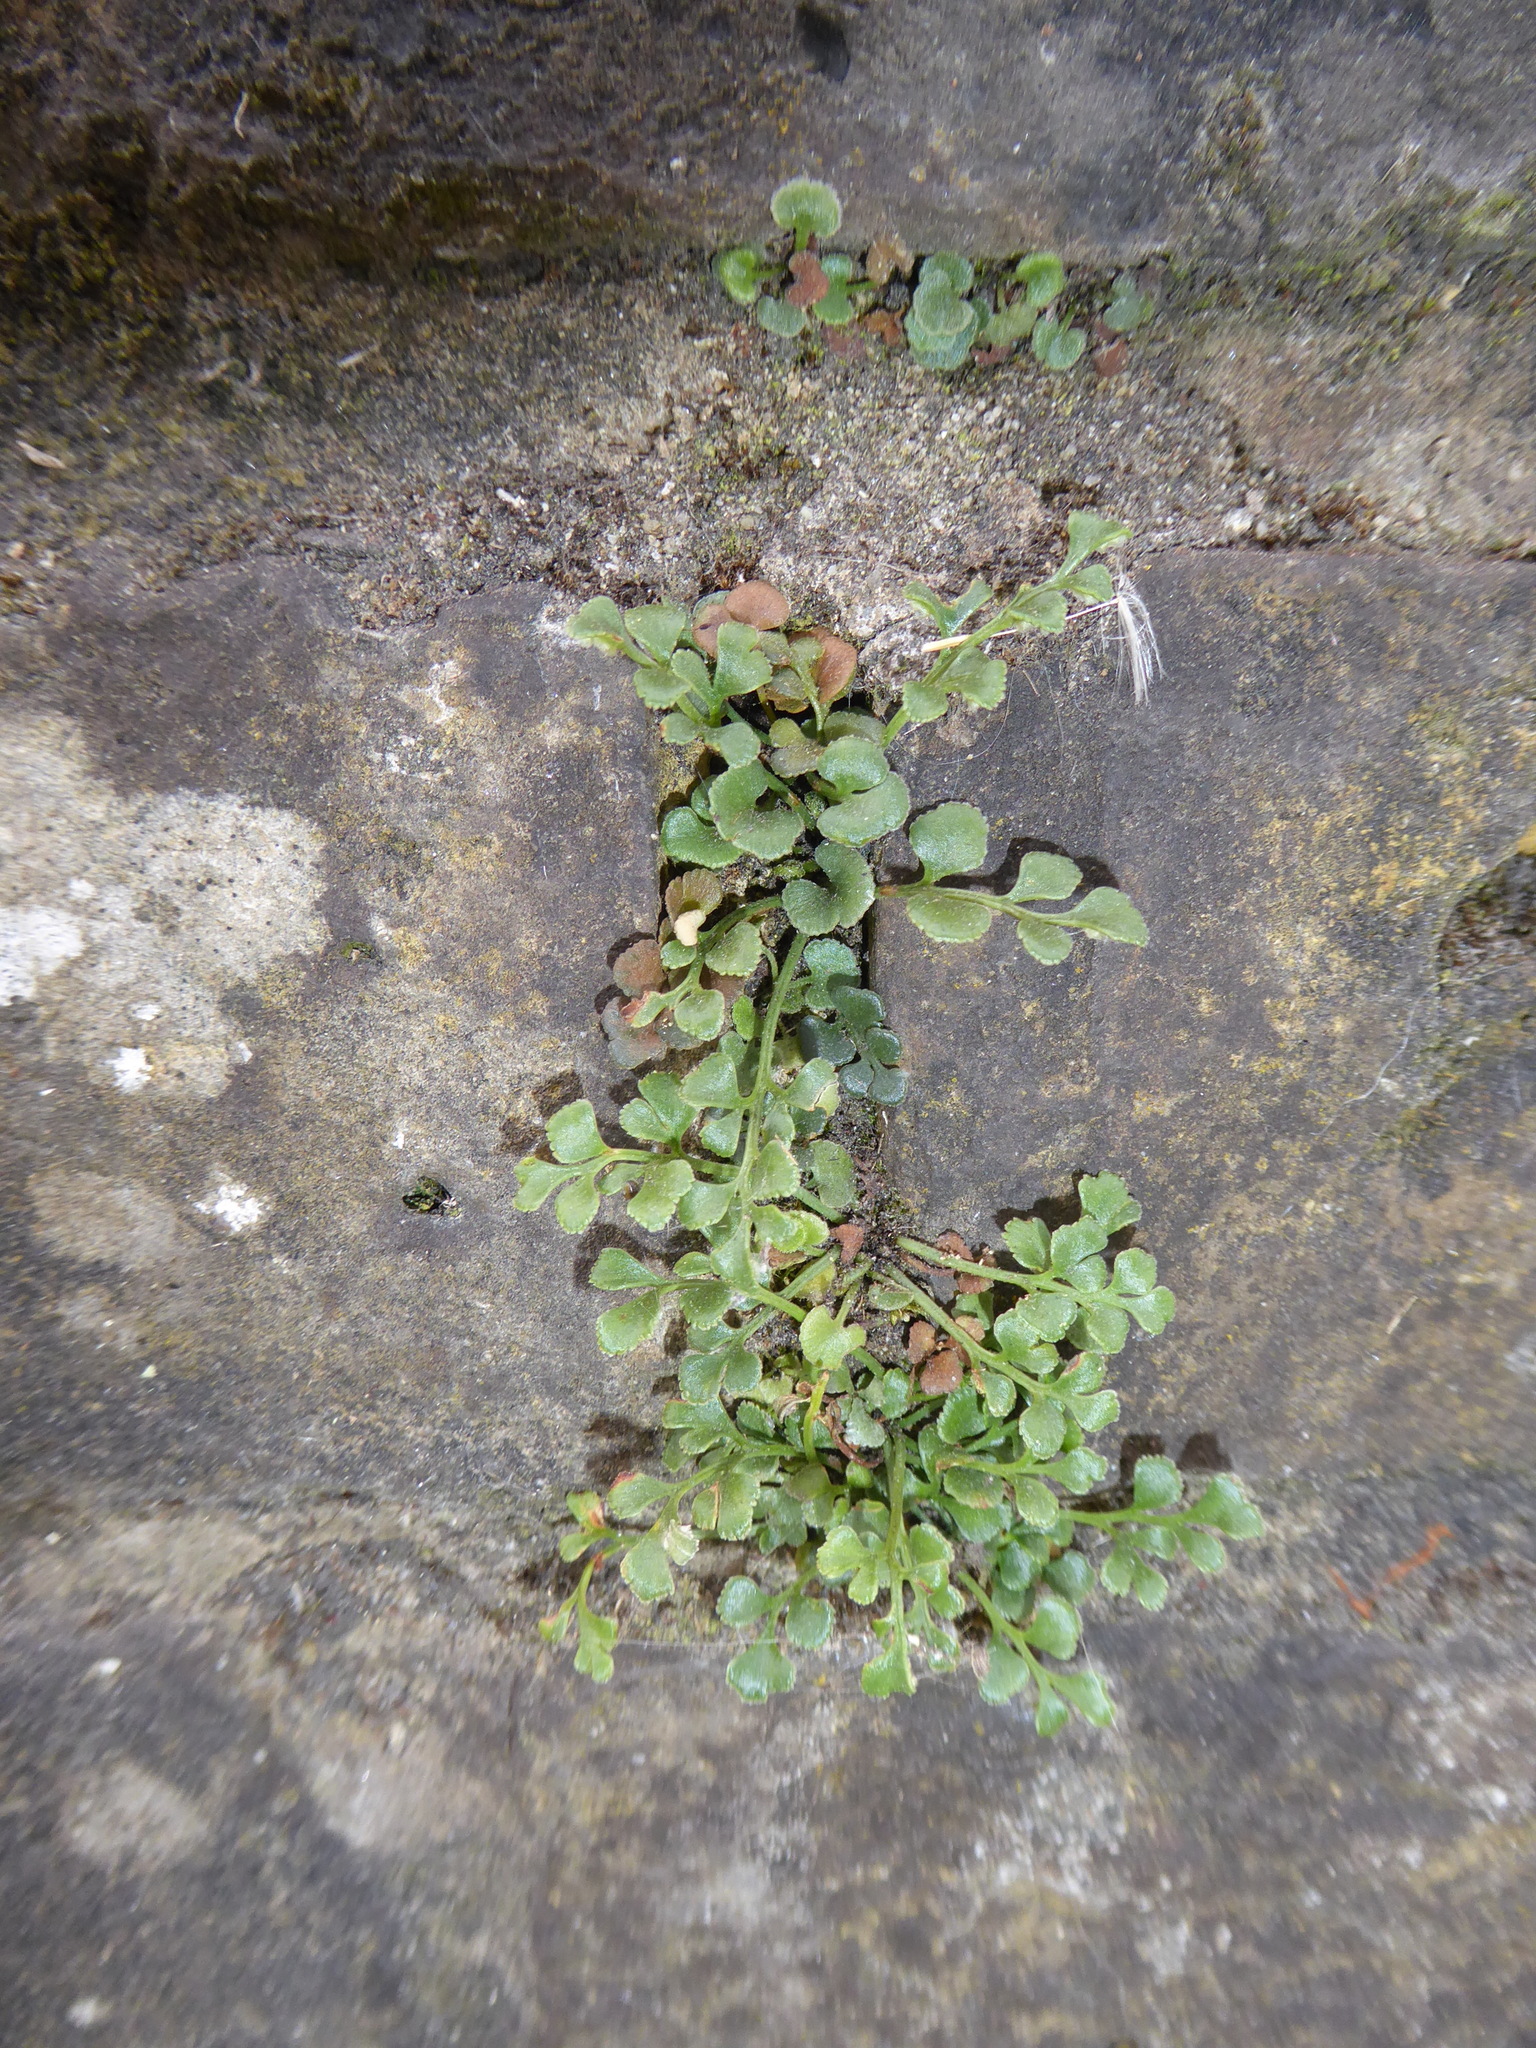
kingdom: Plantae
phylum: Tracheophyta
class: Polypodiopsida
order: Polypodiales
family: Aspleniaceae
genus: Asplenium
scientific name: Asplenium ruta-muraria
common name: Wall-rue
